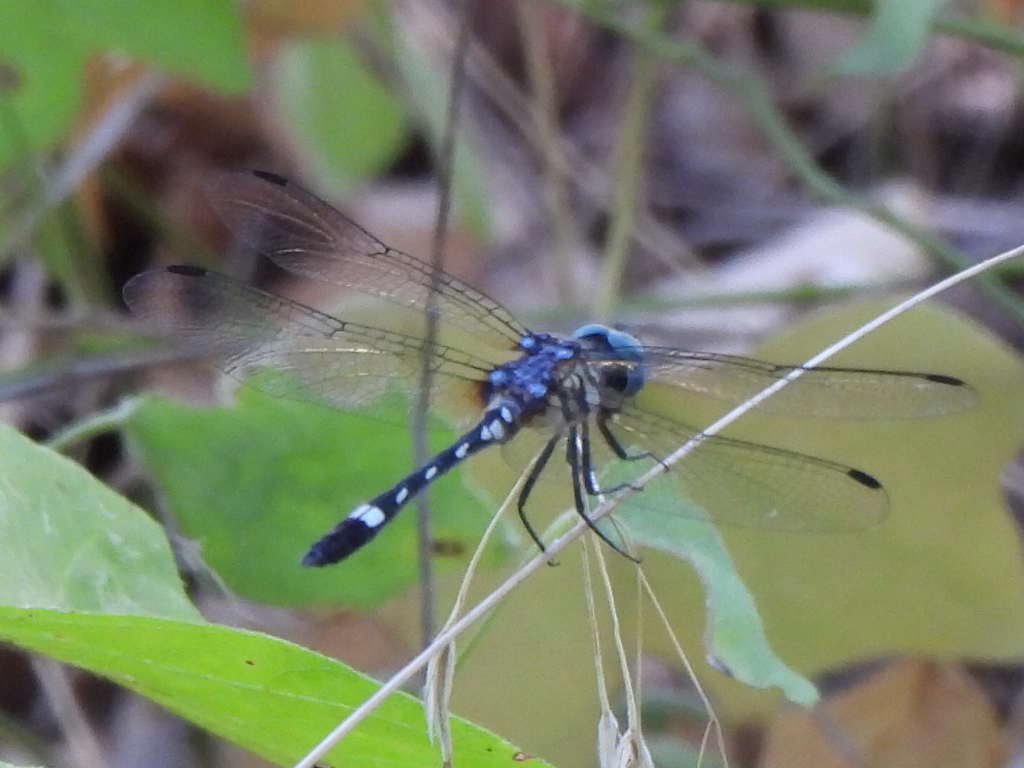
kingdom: Animalia
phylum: Arthropoda
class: Insecta
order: Odonata
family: Libellulidae
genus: Micrathyria
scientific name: Micrathyria hagenii
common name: Thornbush dasher
